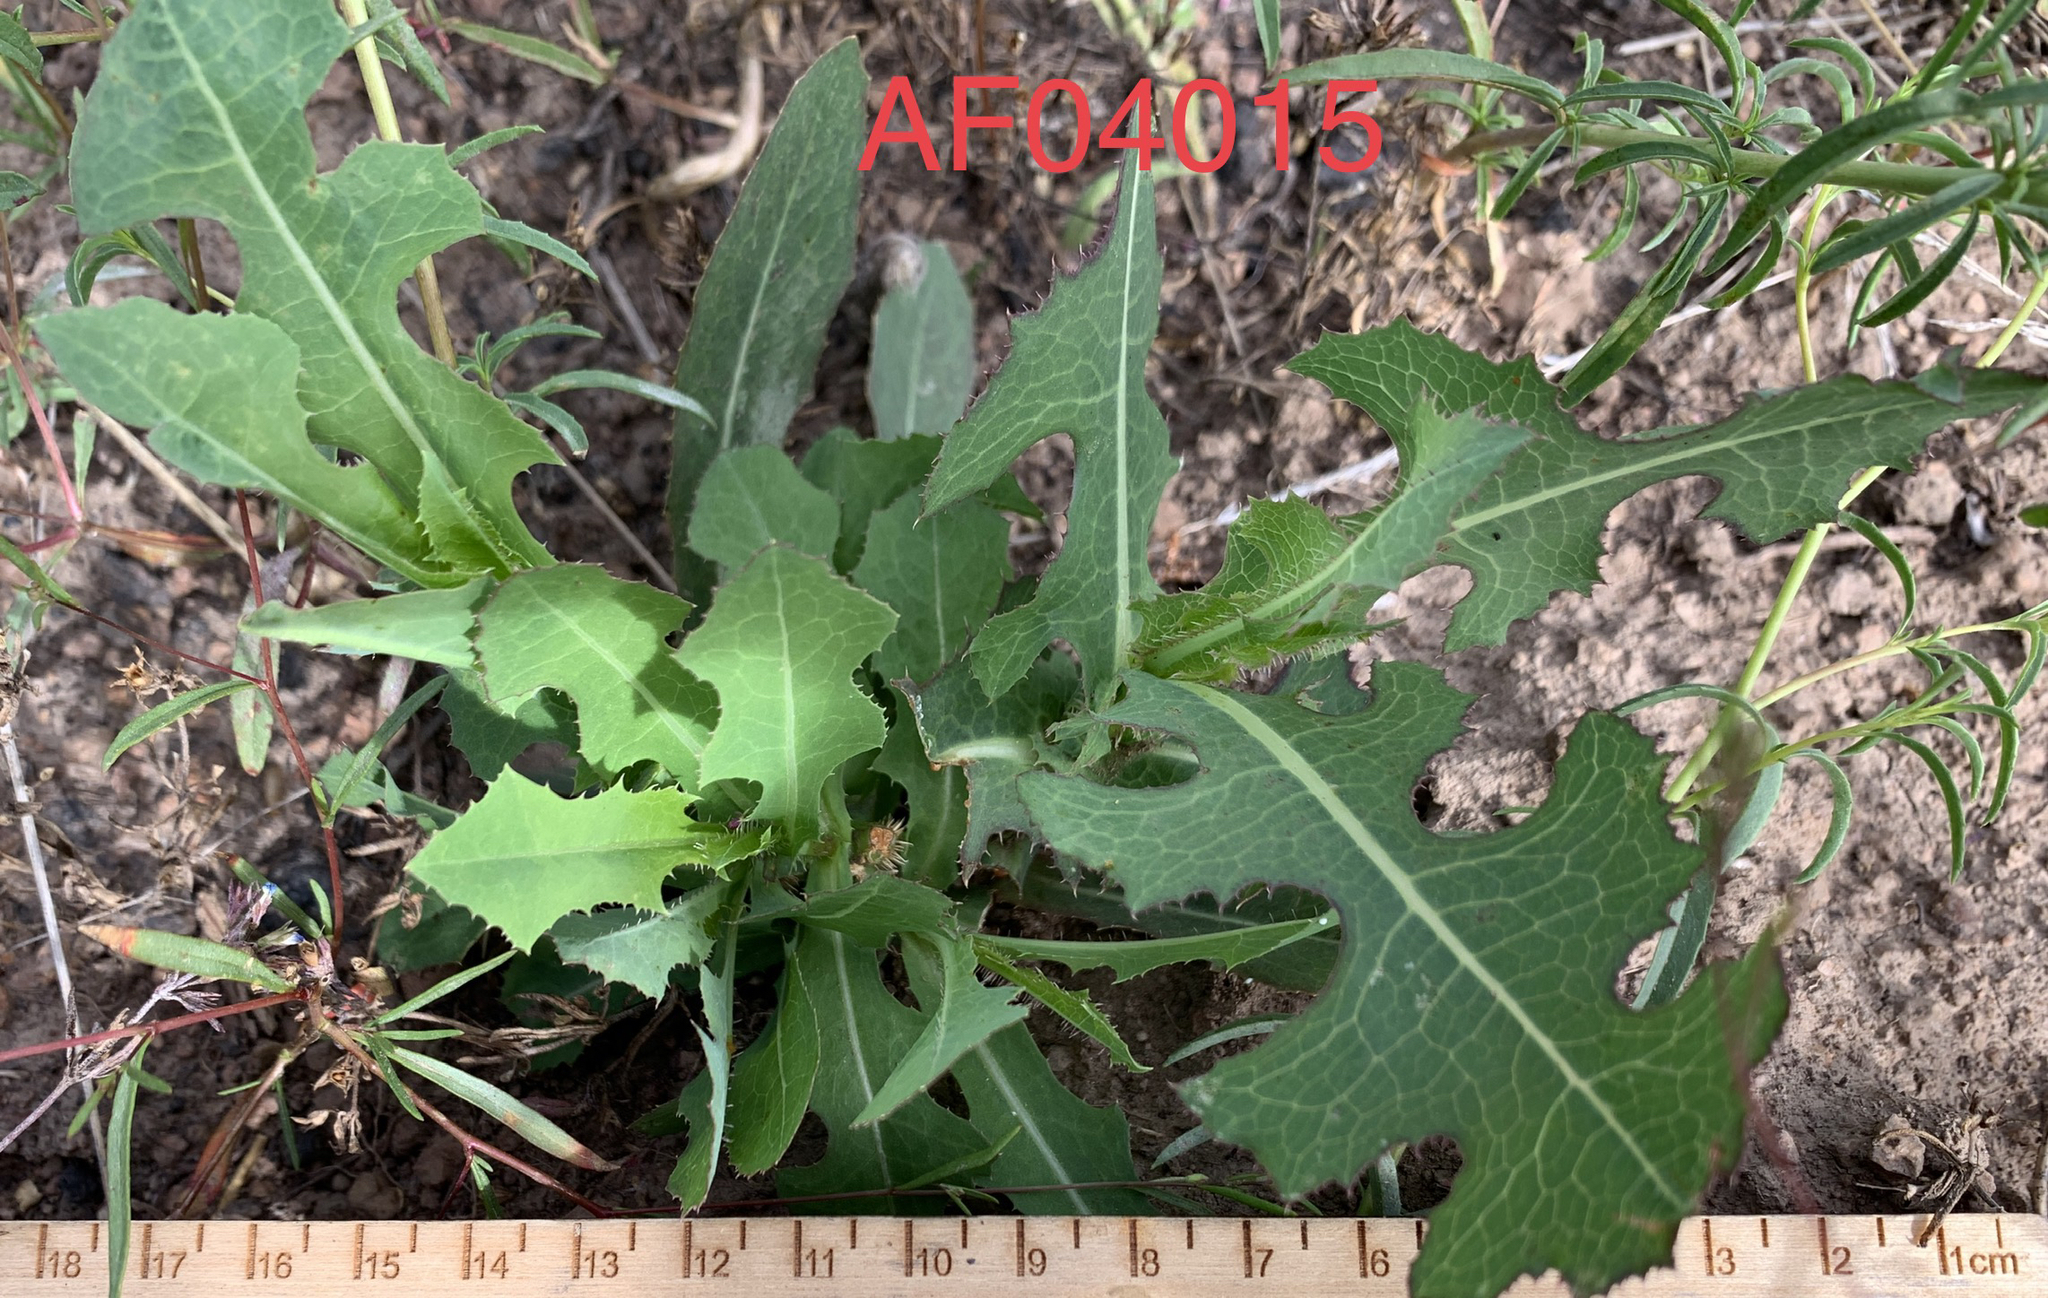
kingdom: Plantae
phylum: Tracheophyta
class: Magnoliopsida
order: Asterales
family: Asteraceae
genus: Lactuca
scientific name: Lactuca serriola
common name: Prickly lettuce
